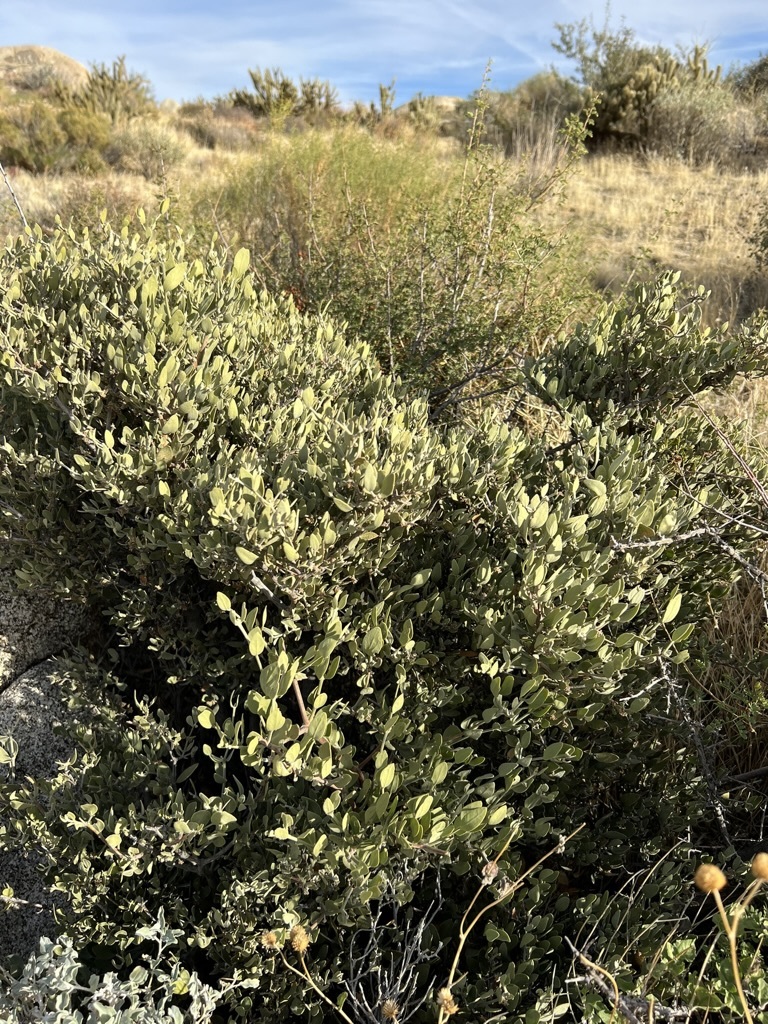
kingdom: Plantae
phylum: Tracheophyta
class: Magnoliopsida
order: Caryophyllales
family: Simmondsiaceae
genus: Simmondsia
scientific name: Simmondsia chinensis
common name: Jojoba
